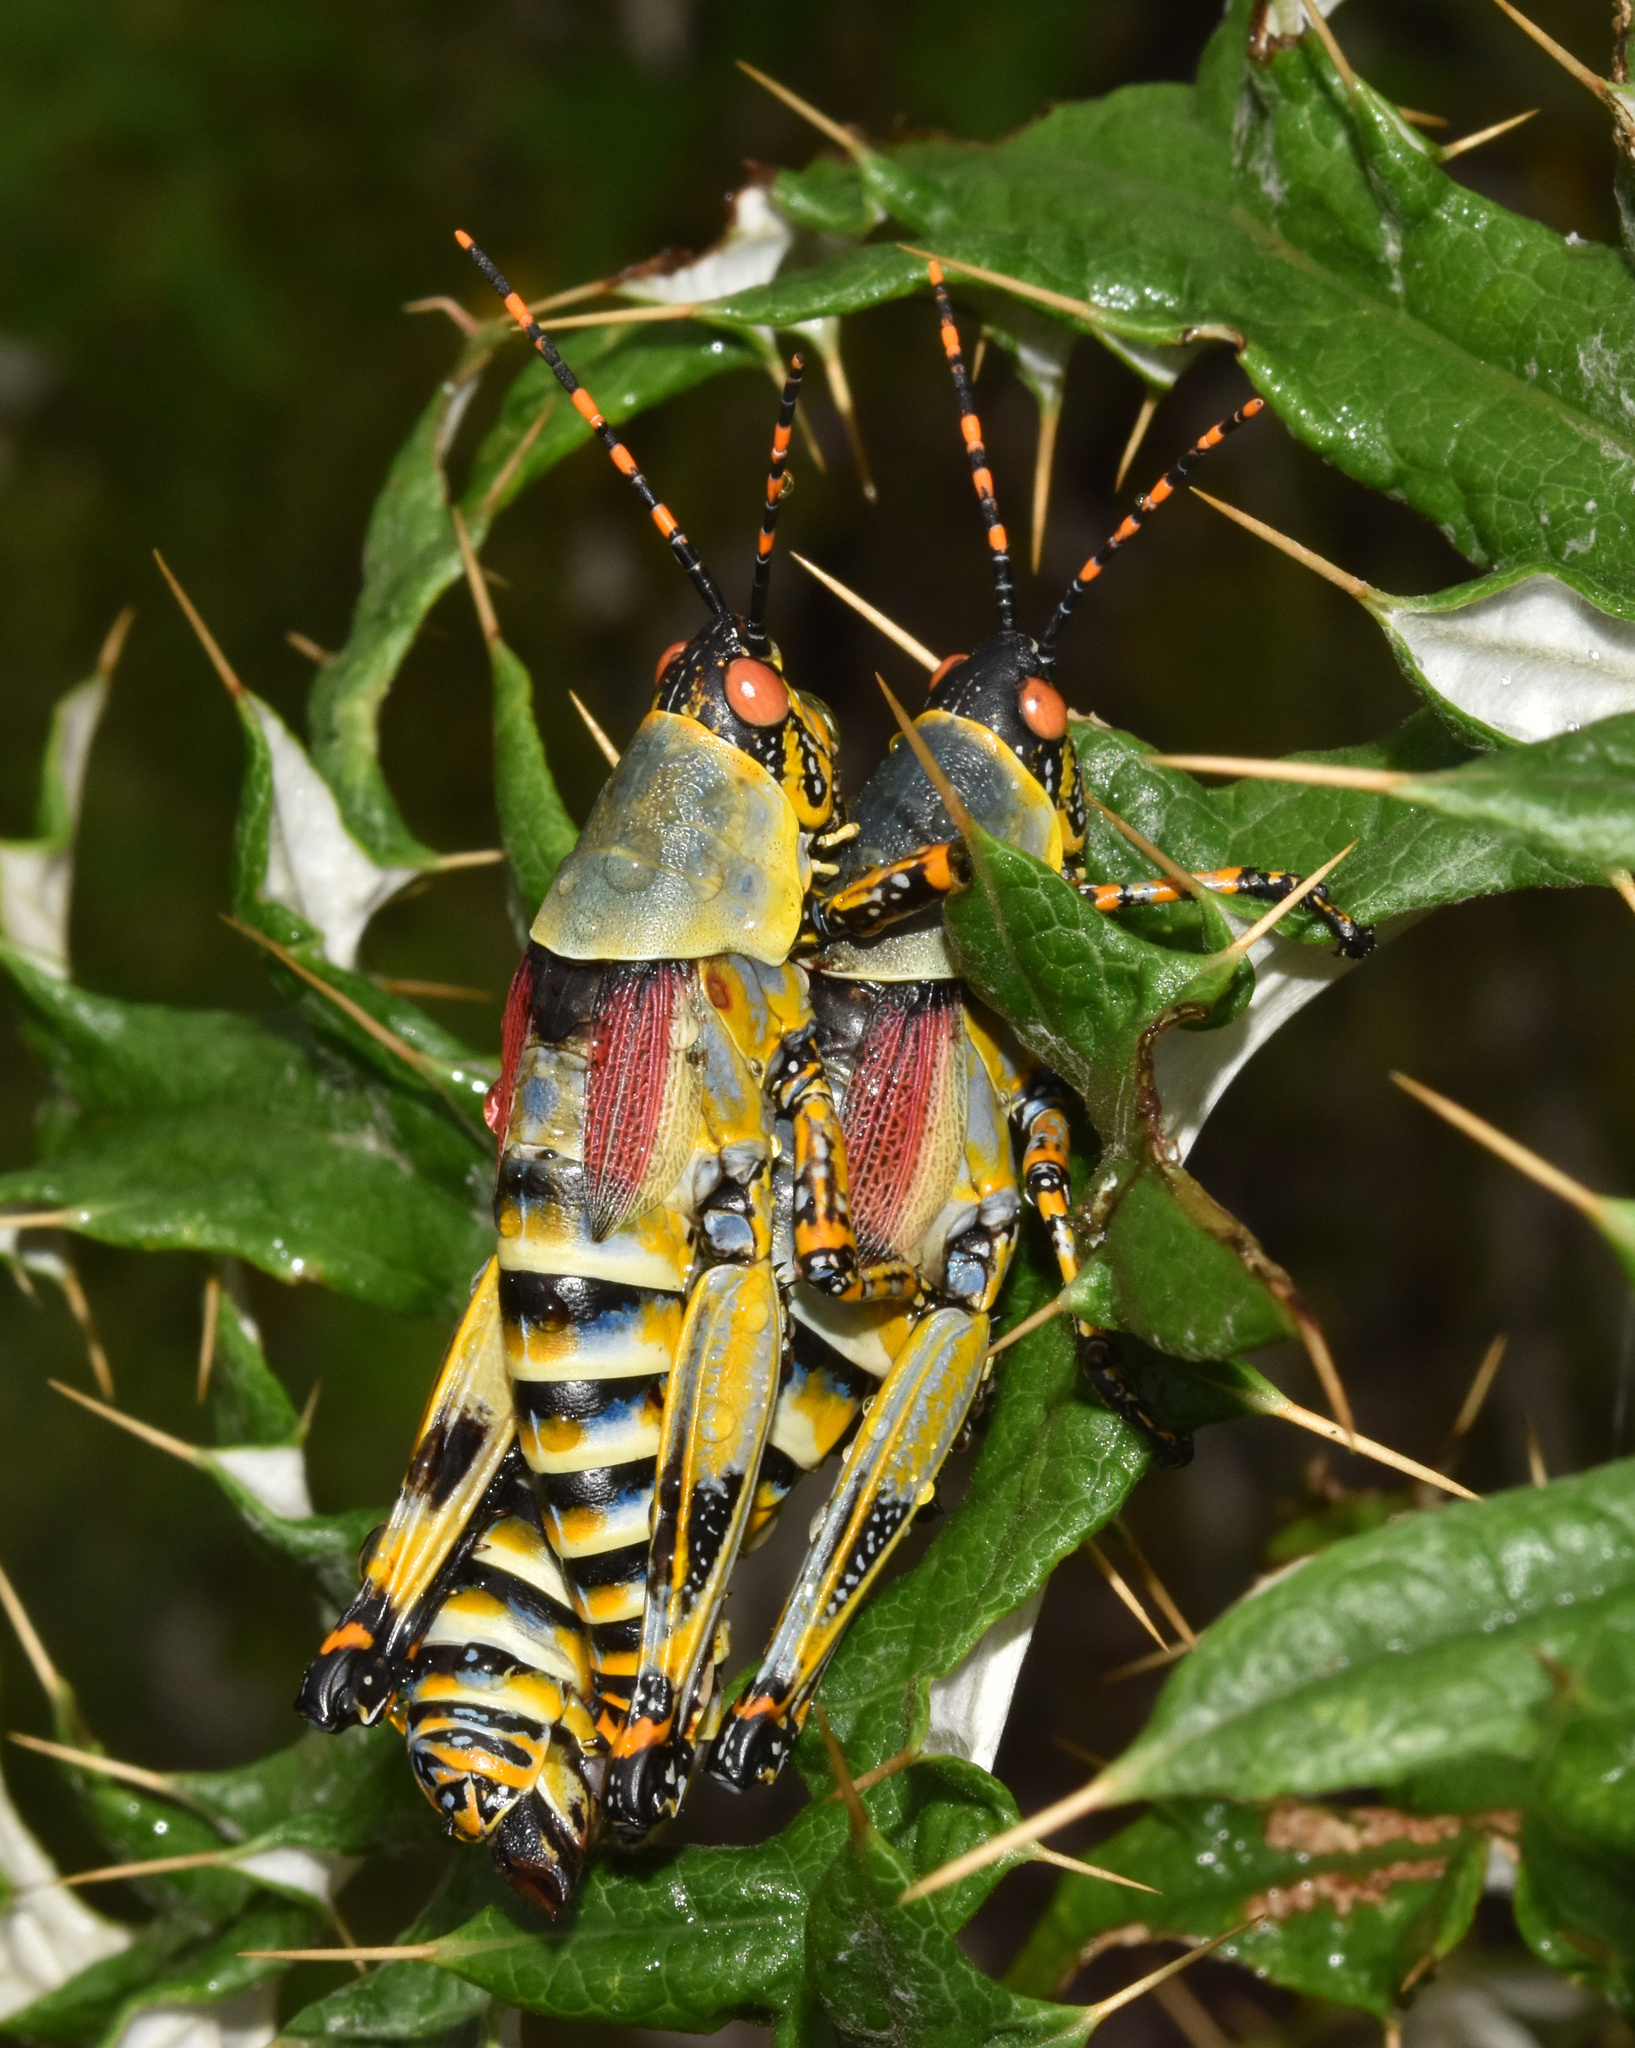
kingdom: Animalia
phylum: Arthropoda
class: Insecta
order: Orthoptera
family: Pyrgomorphidae
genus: Zonocerus
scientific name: Zonocerus elegans
